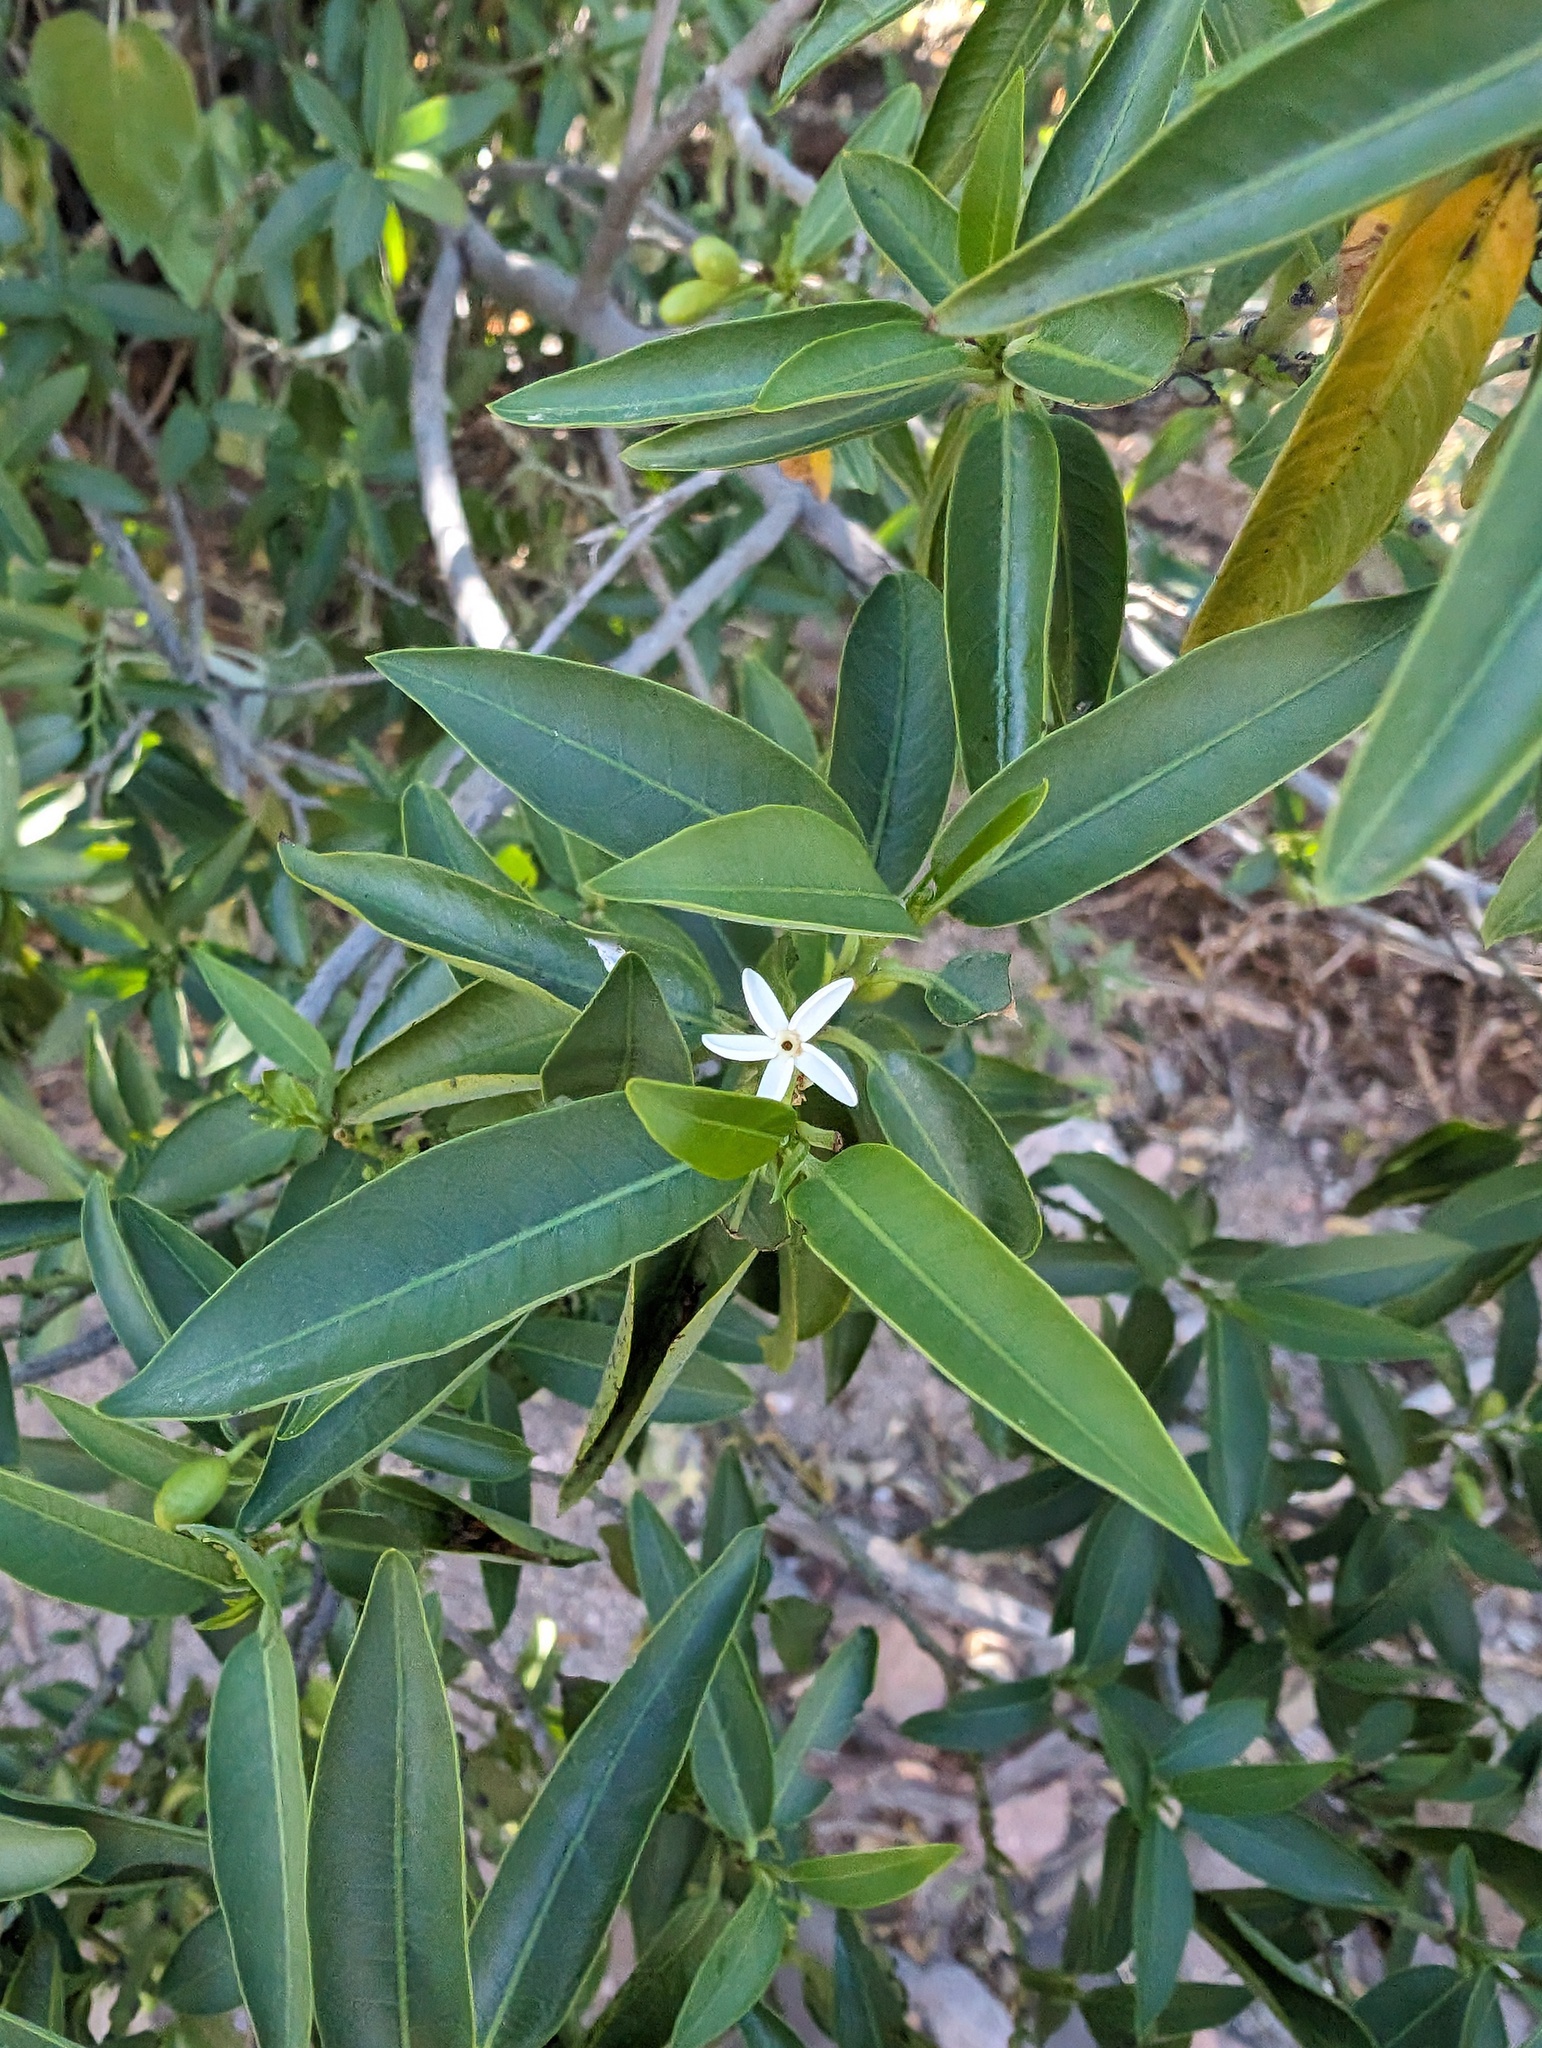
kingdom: Plantae
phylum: Tracheophyta
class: Magnoliopsida
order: Gentianales
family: Apocynaceae
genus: Vallesia
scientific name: Vallesia glabra
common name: Pearlberry
